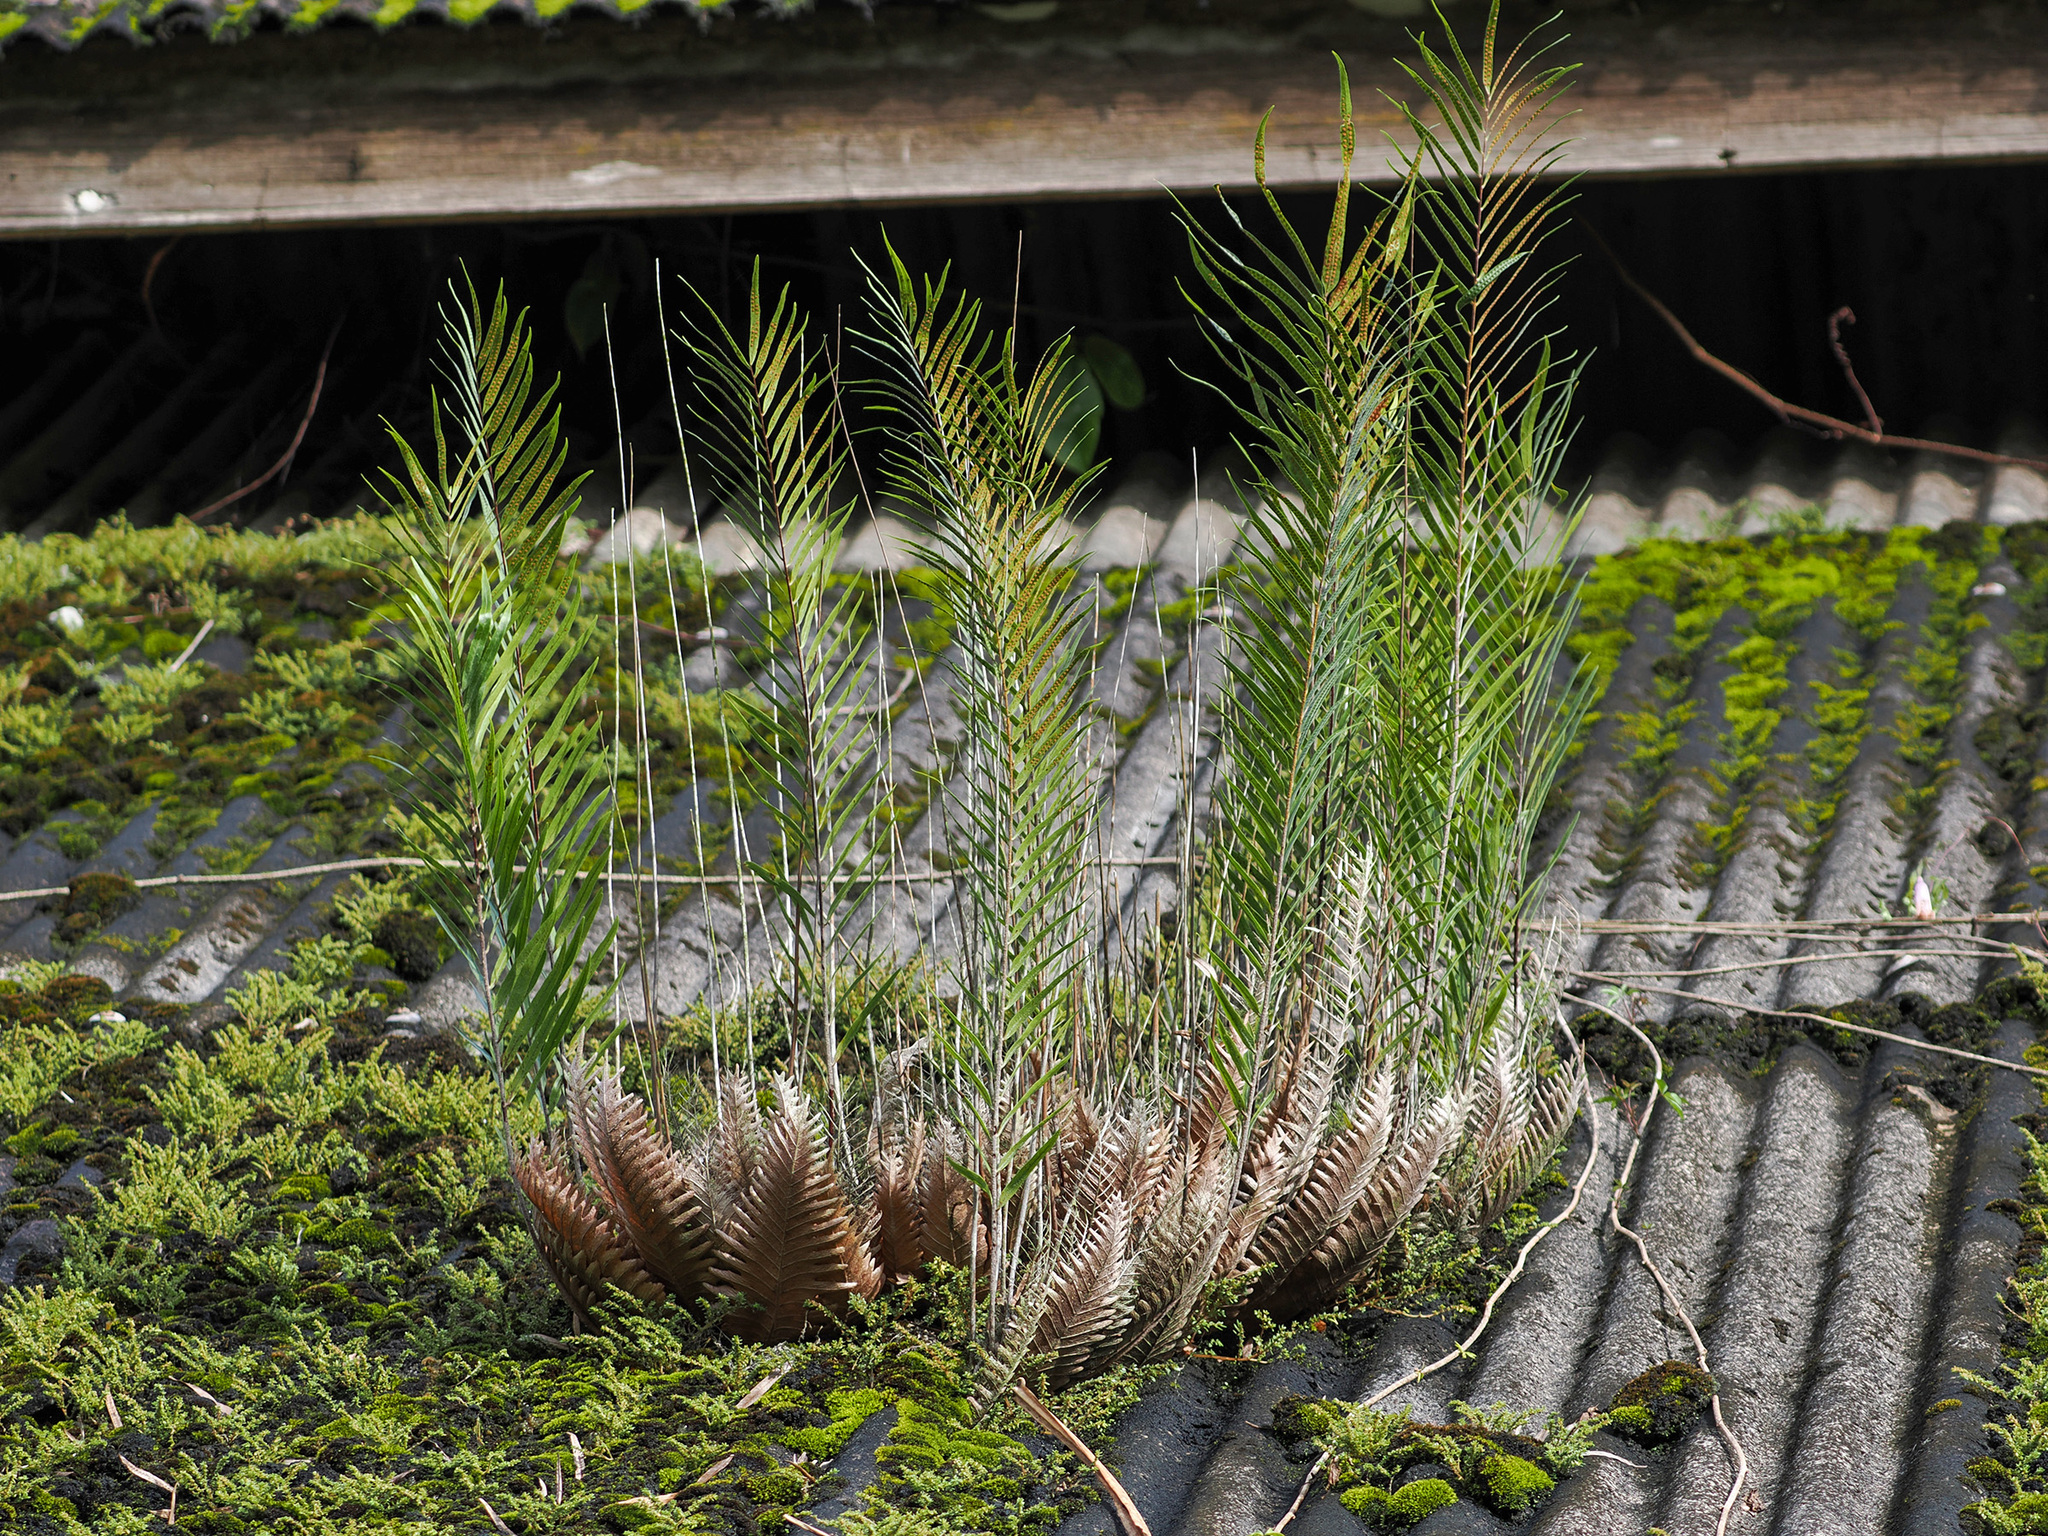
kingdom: Plantae
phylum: Tracheophyta
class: Polypodiopsida
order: Polypodiales
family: Polypodiaceae
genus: Drynaria
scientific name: Drynaria rigidula
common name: Basket fern
